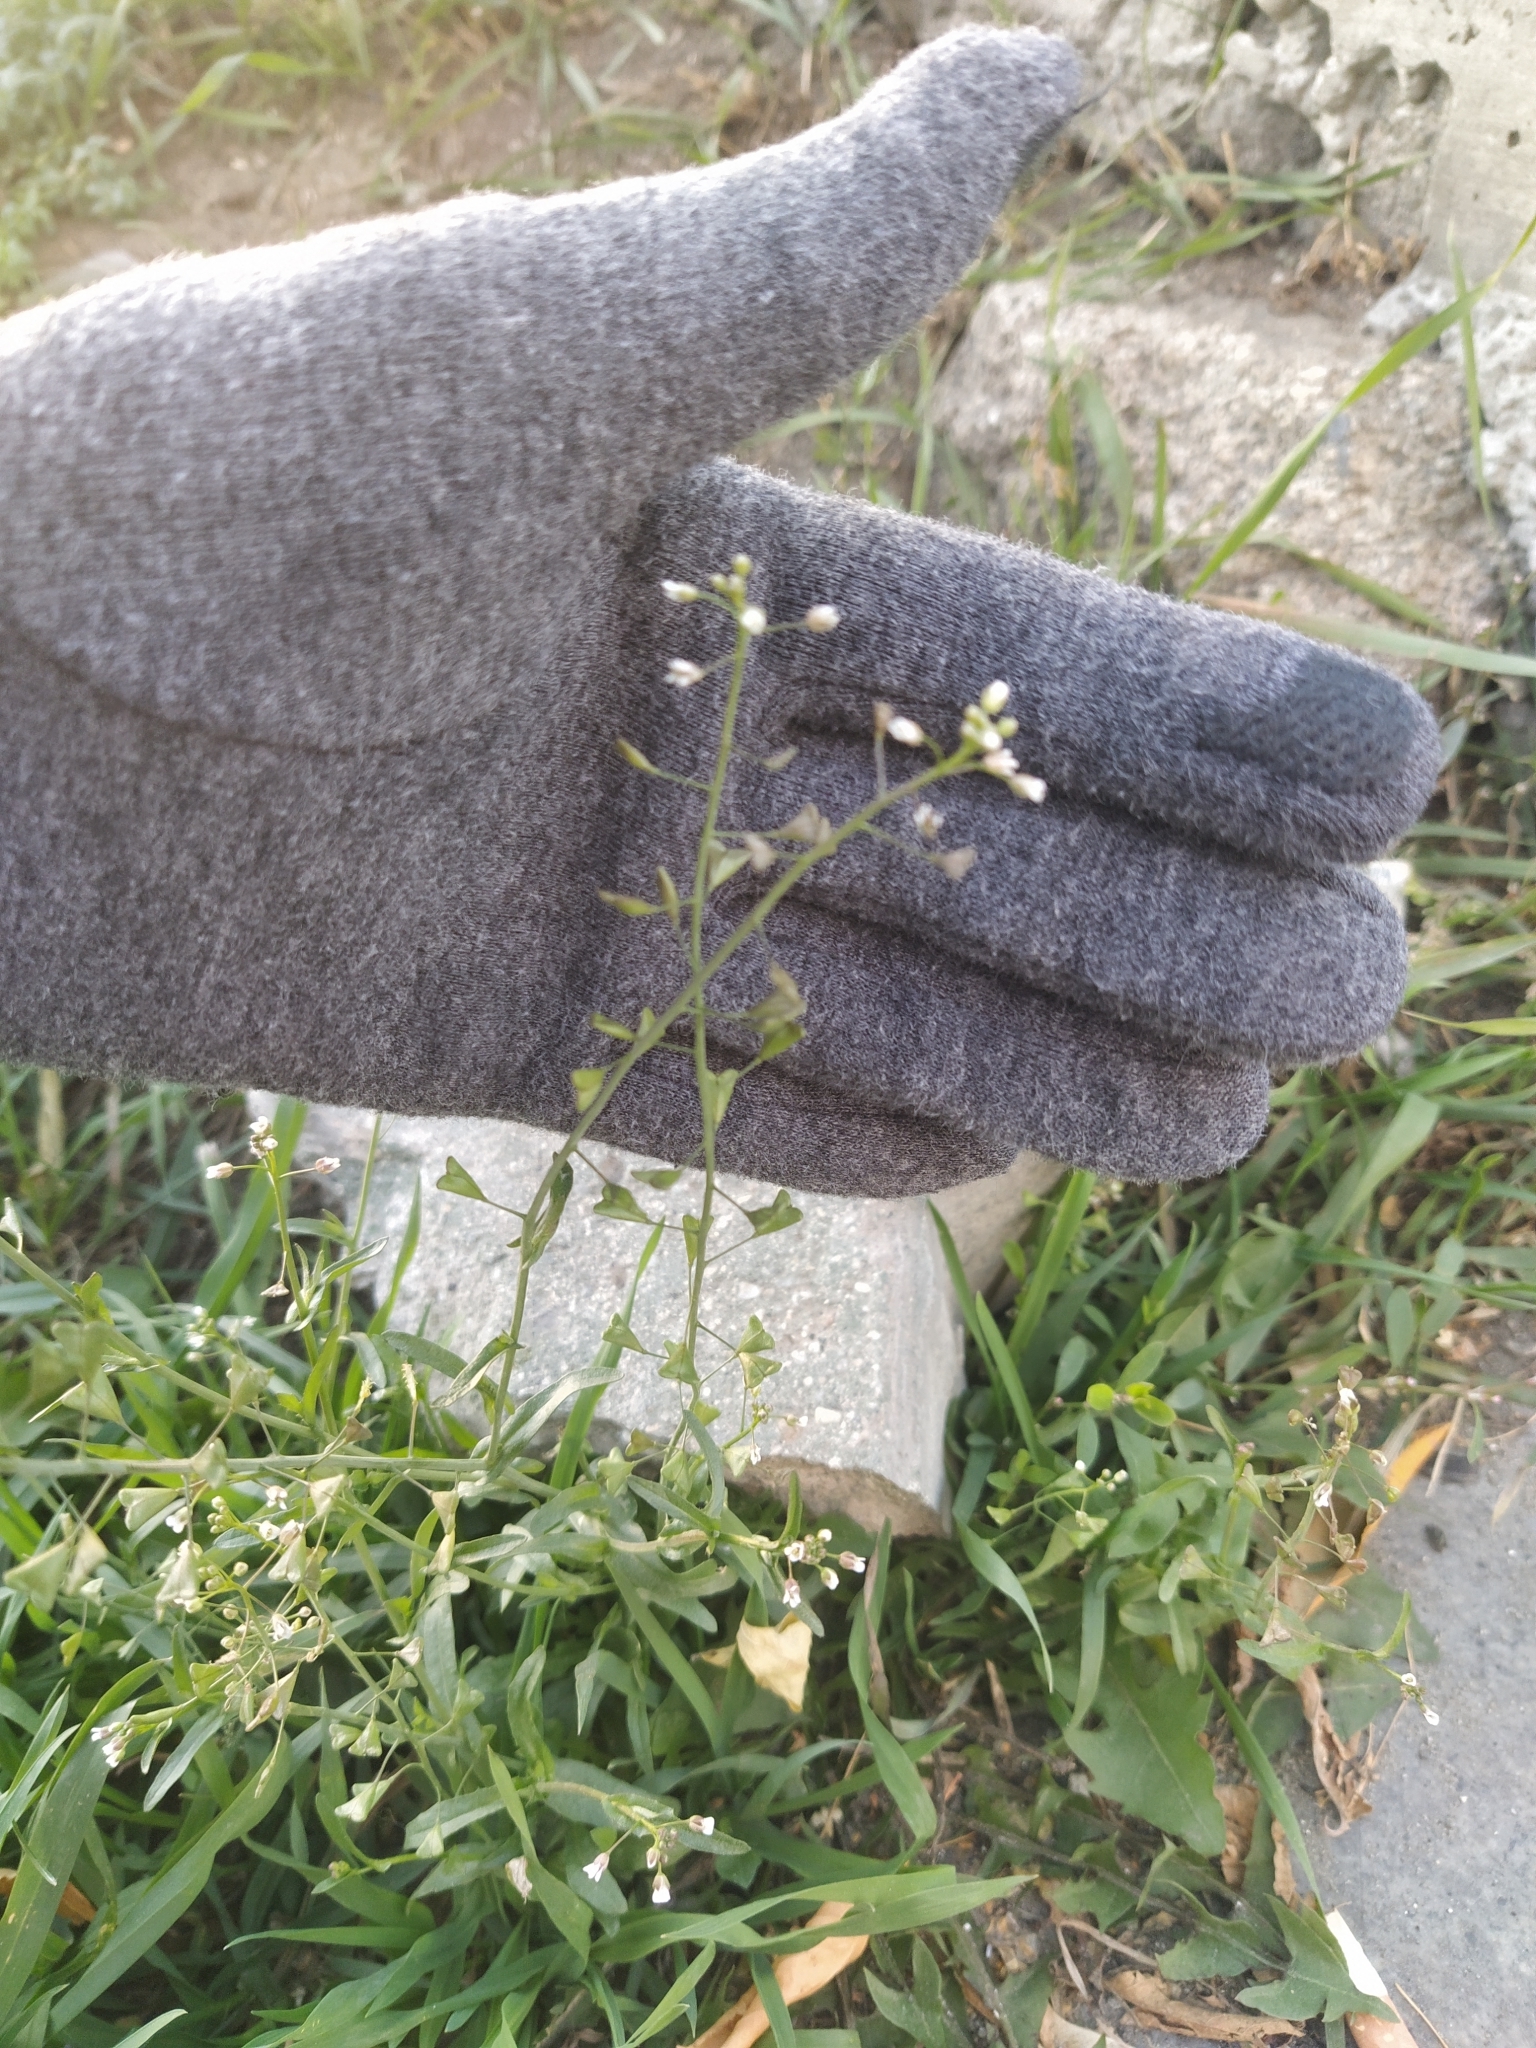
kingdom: Plantae
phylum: Tracheophyta
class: Magnoliopsida
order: Brassicales
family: Brassicaceae
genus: Capsella
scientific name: Capsella bursa-pastoris
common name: Shepherd's purse
